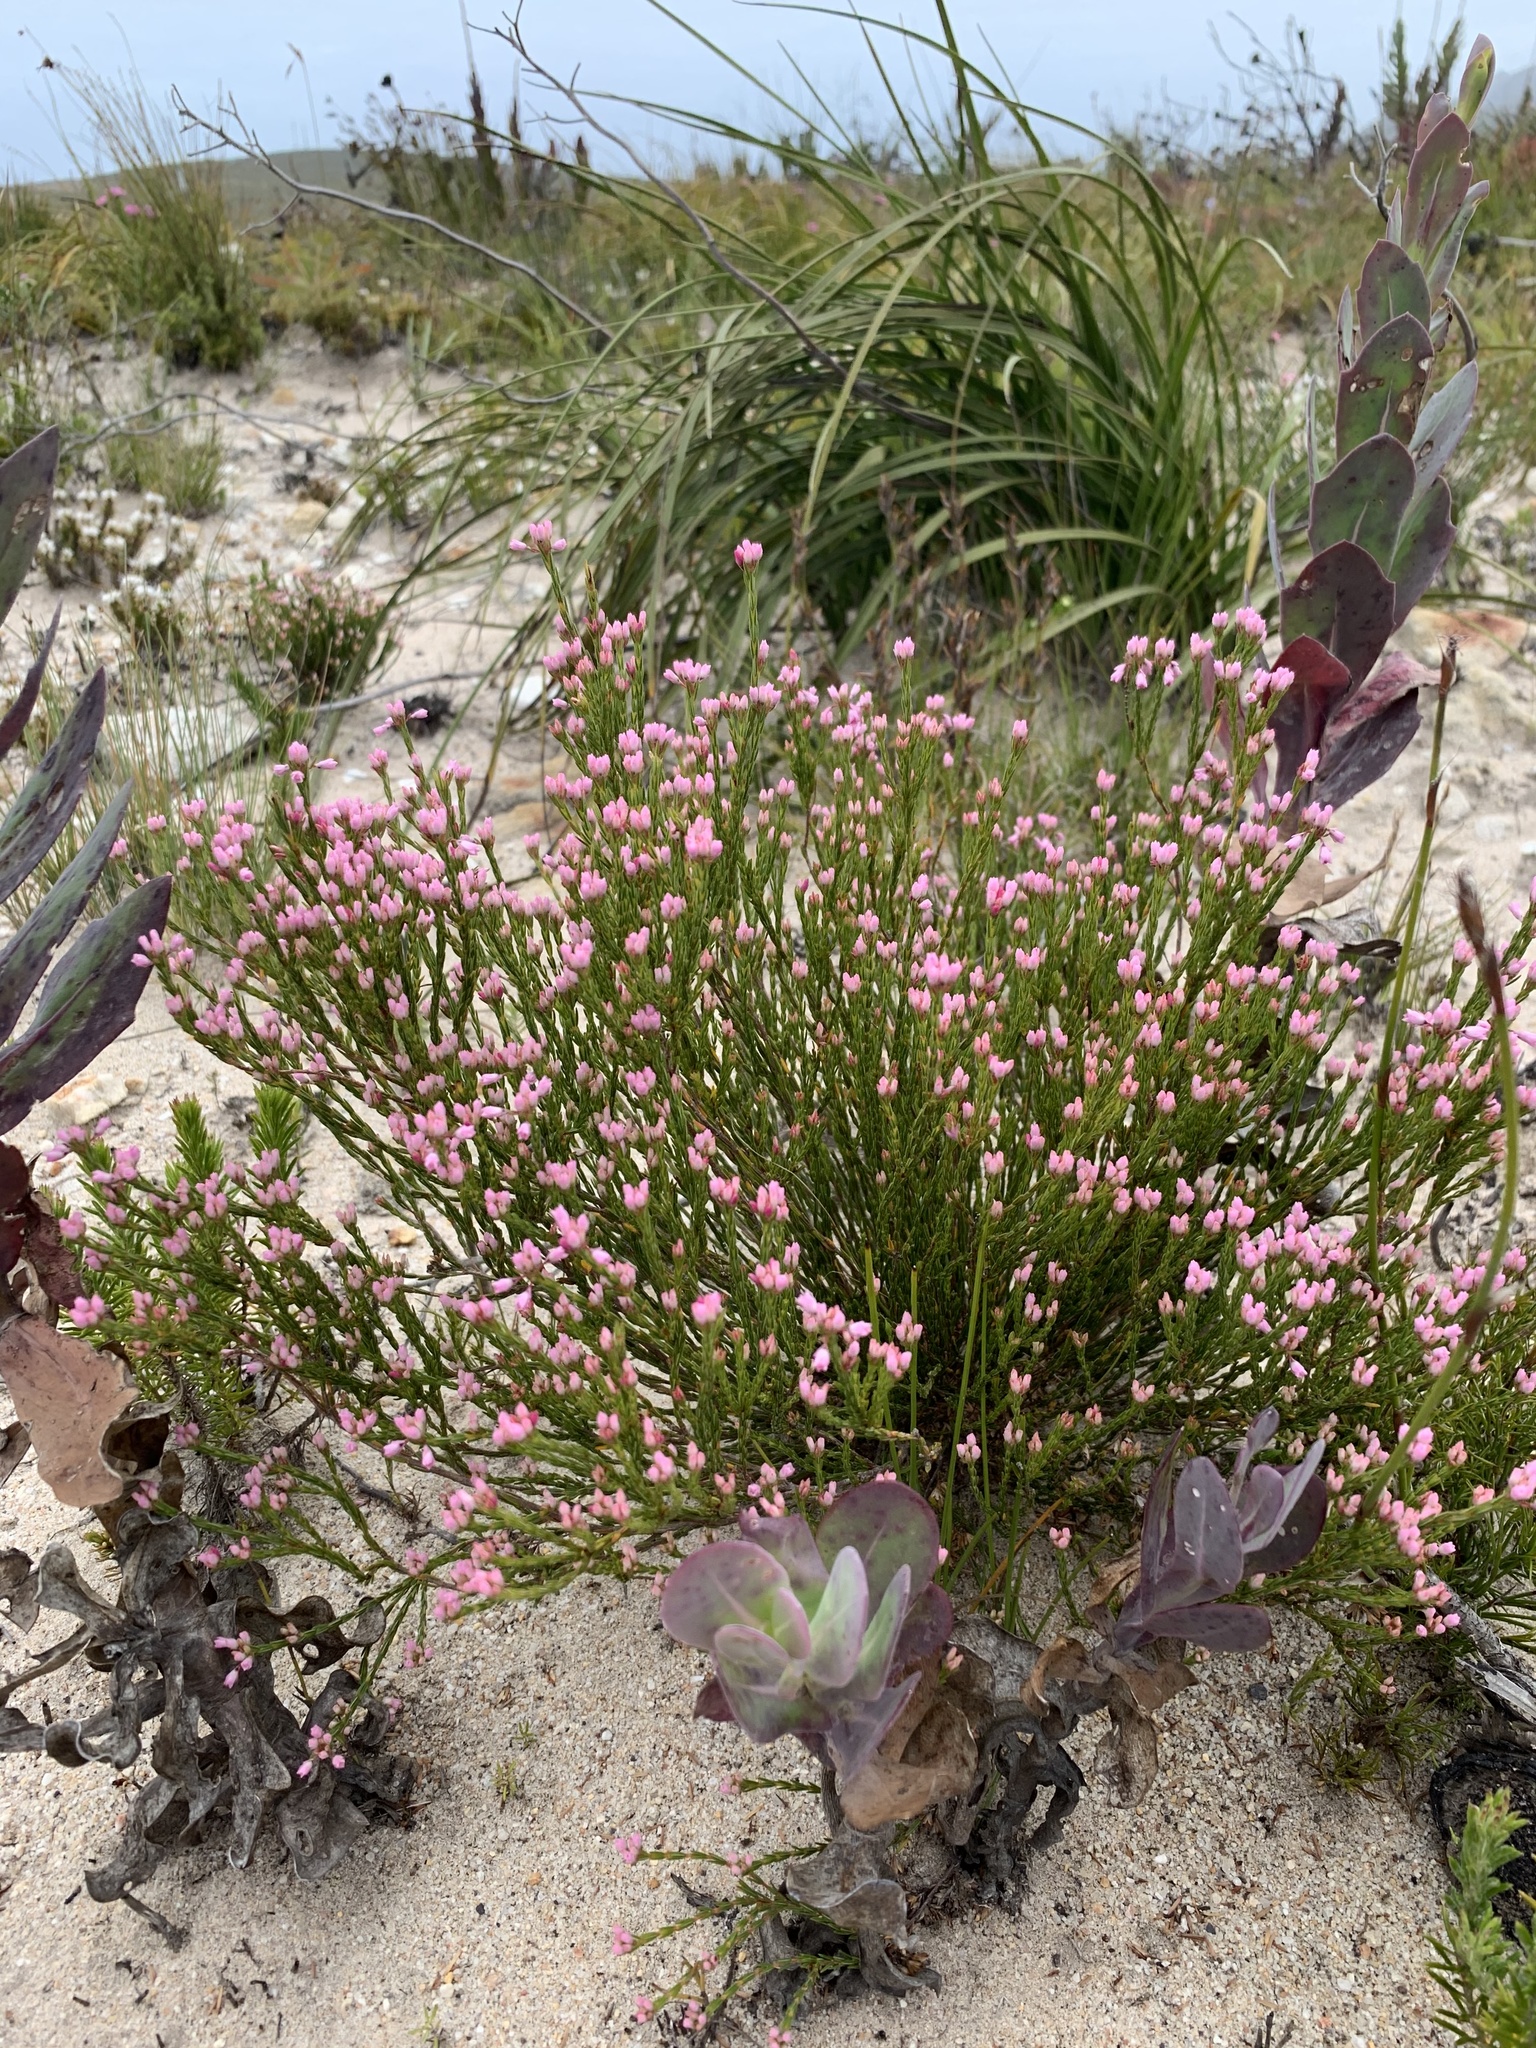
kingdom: Plantae
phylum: Tracheophyta
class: Magnoliopsida
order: Ericales
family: Ericaceae
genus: Erica
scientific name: Erica corifolia
